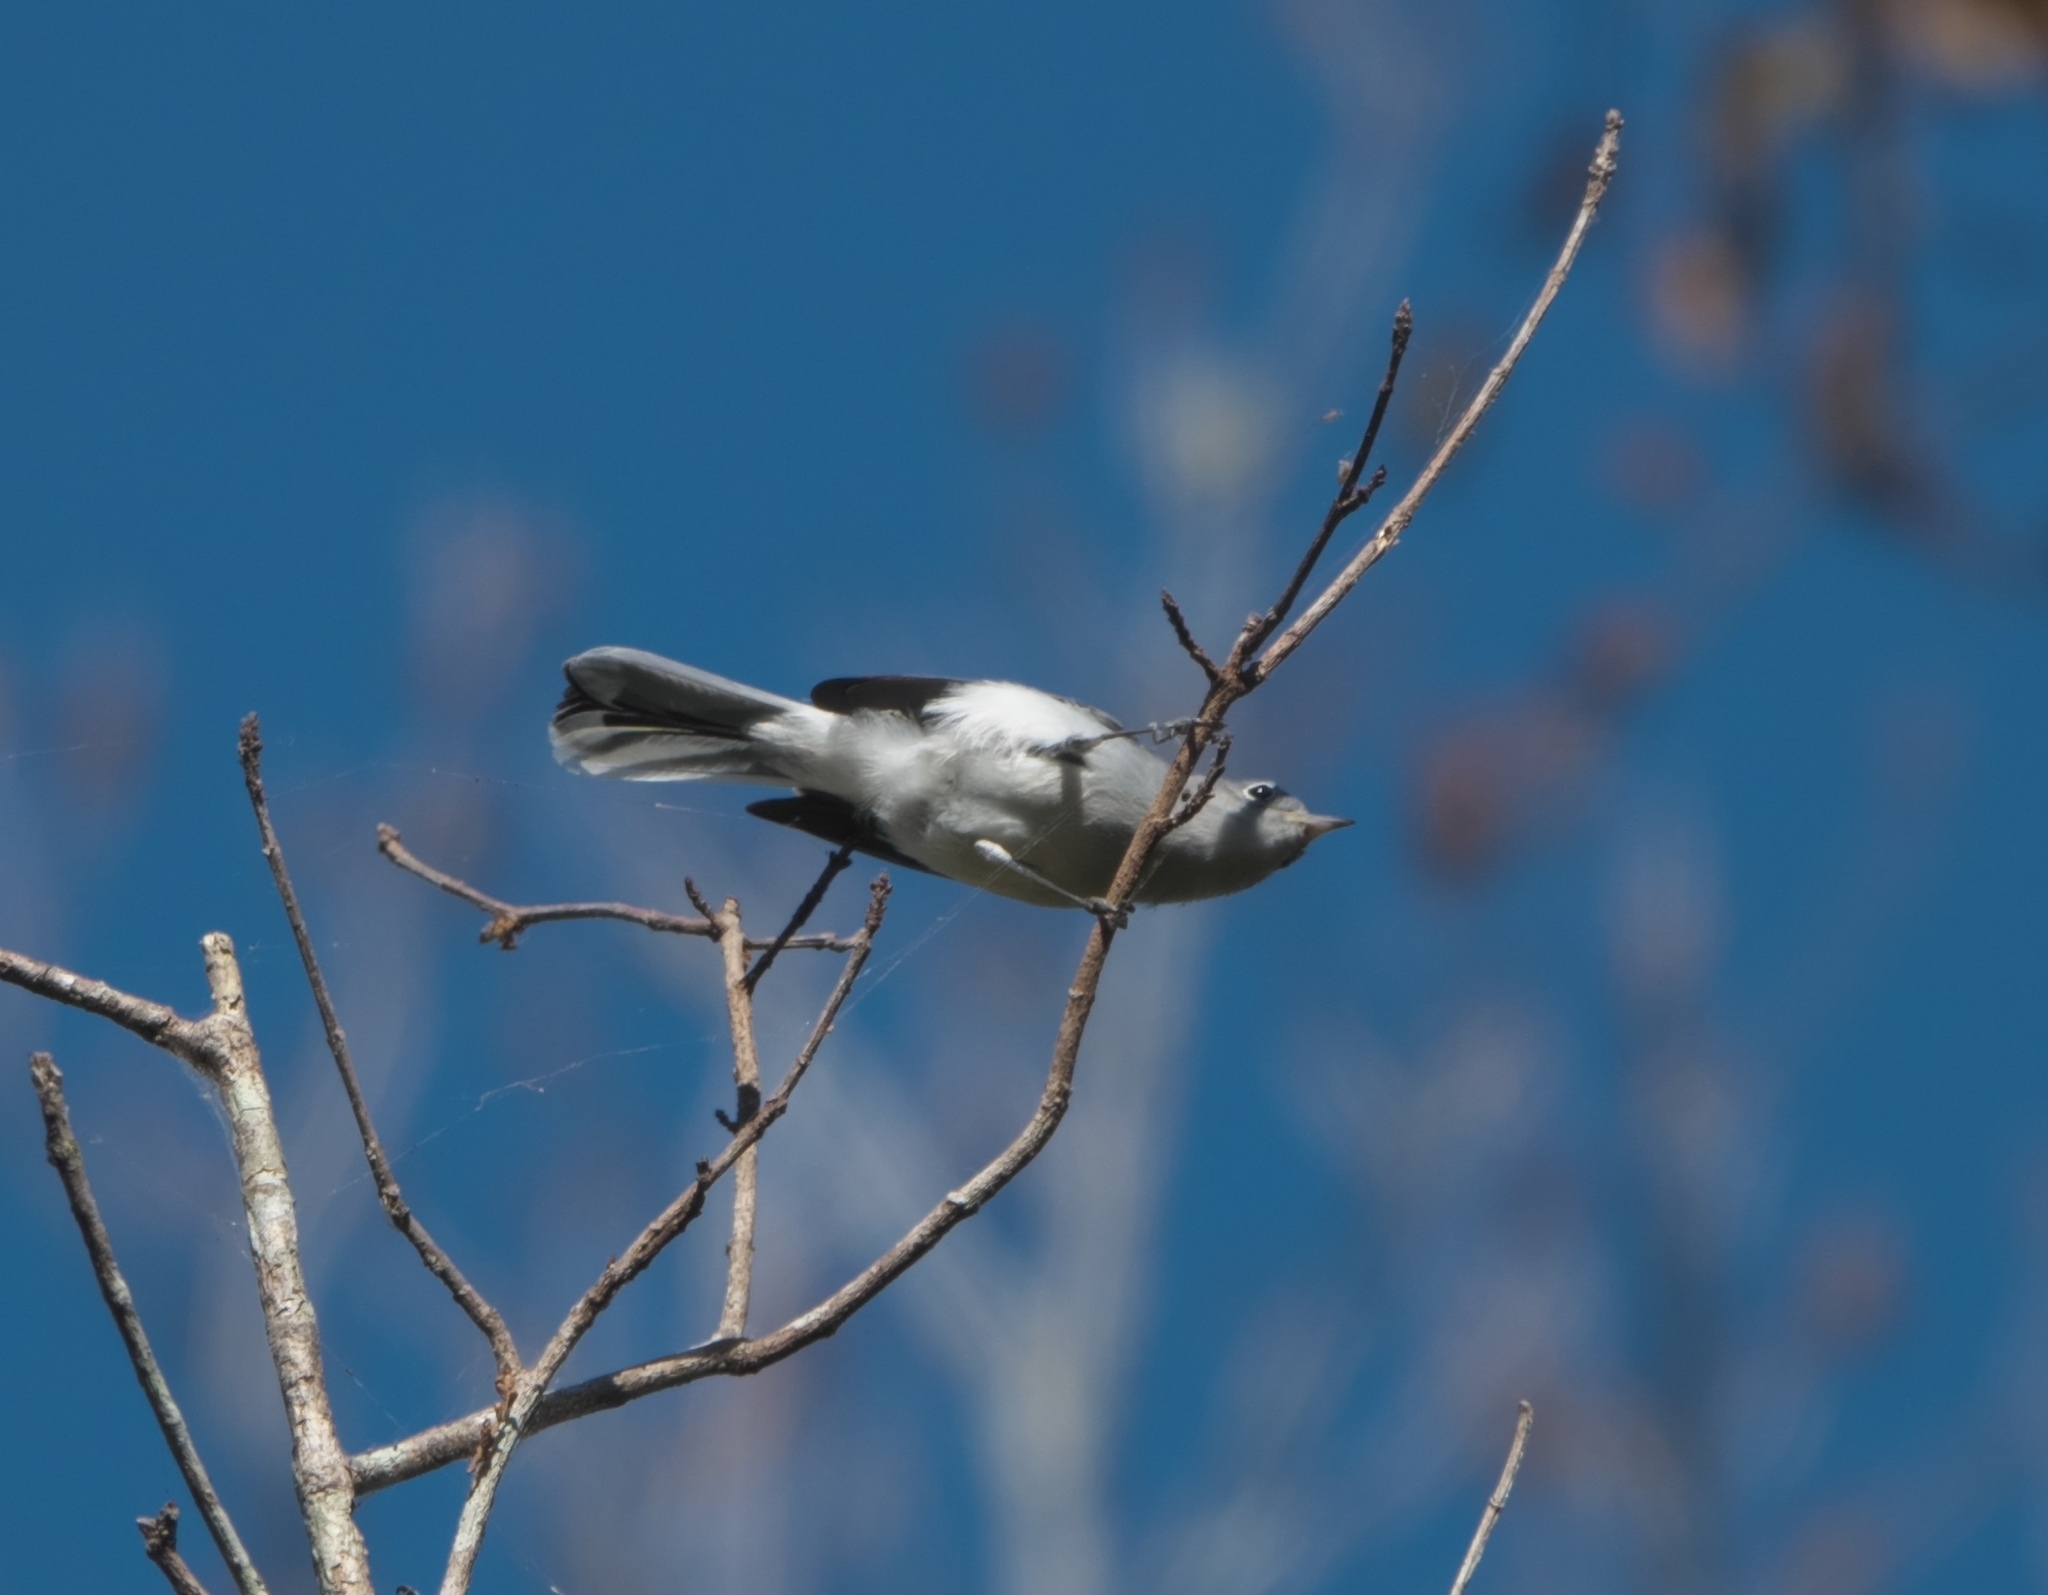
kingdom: Animalia
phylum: Chordata
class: Aves
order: Passeriformes
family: Polioptilidae
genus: Polioptila
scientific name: Polioptila caerulea
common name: Blue-gray gnatcatcher
